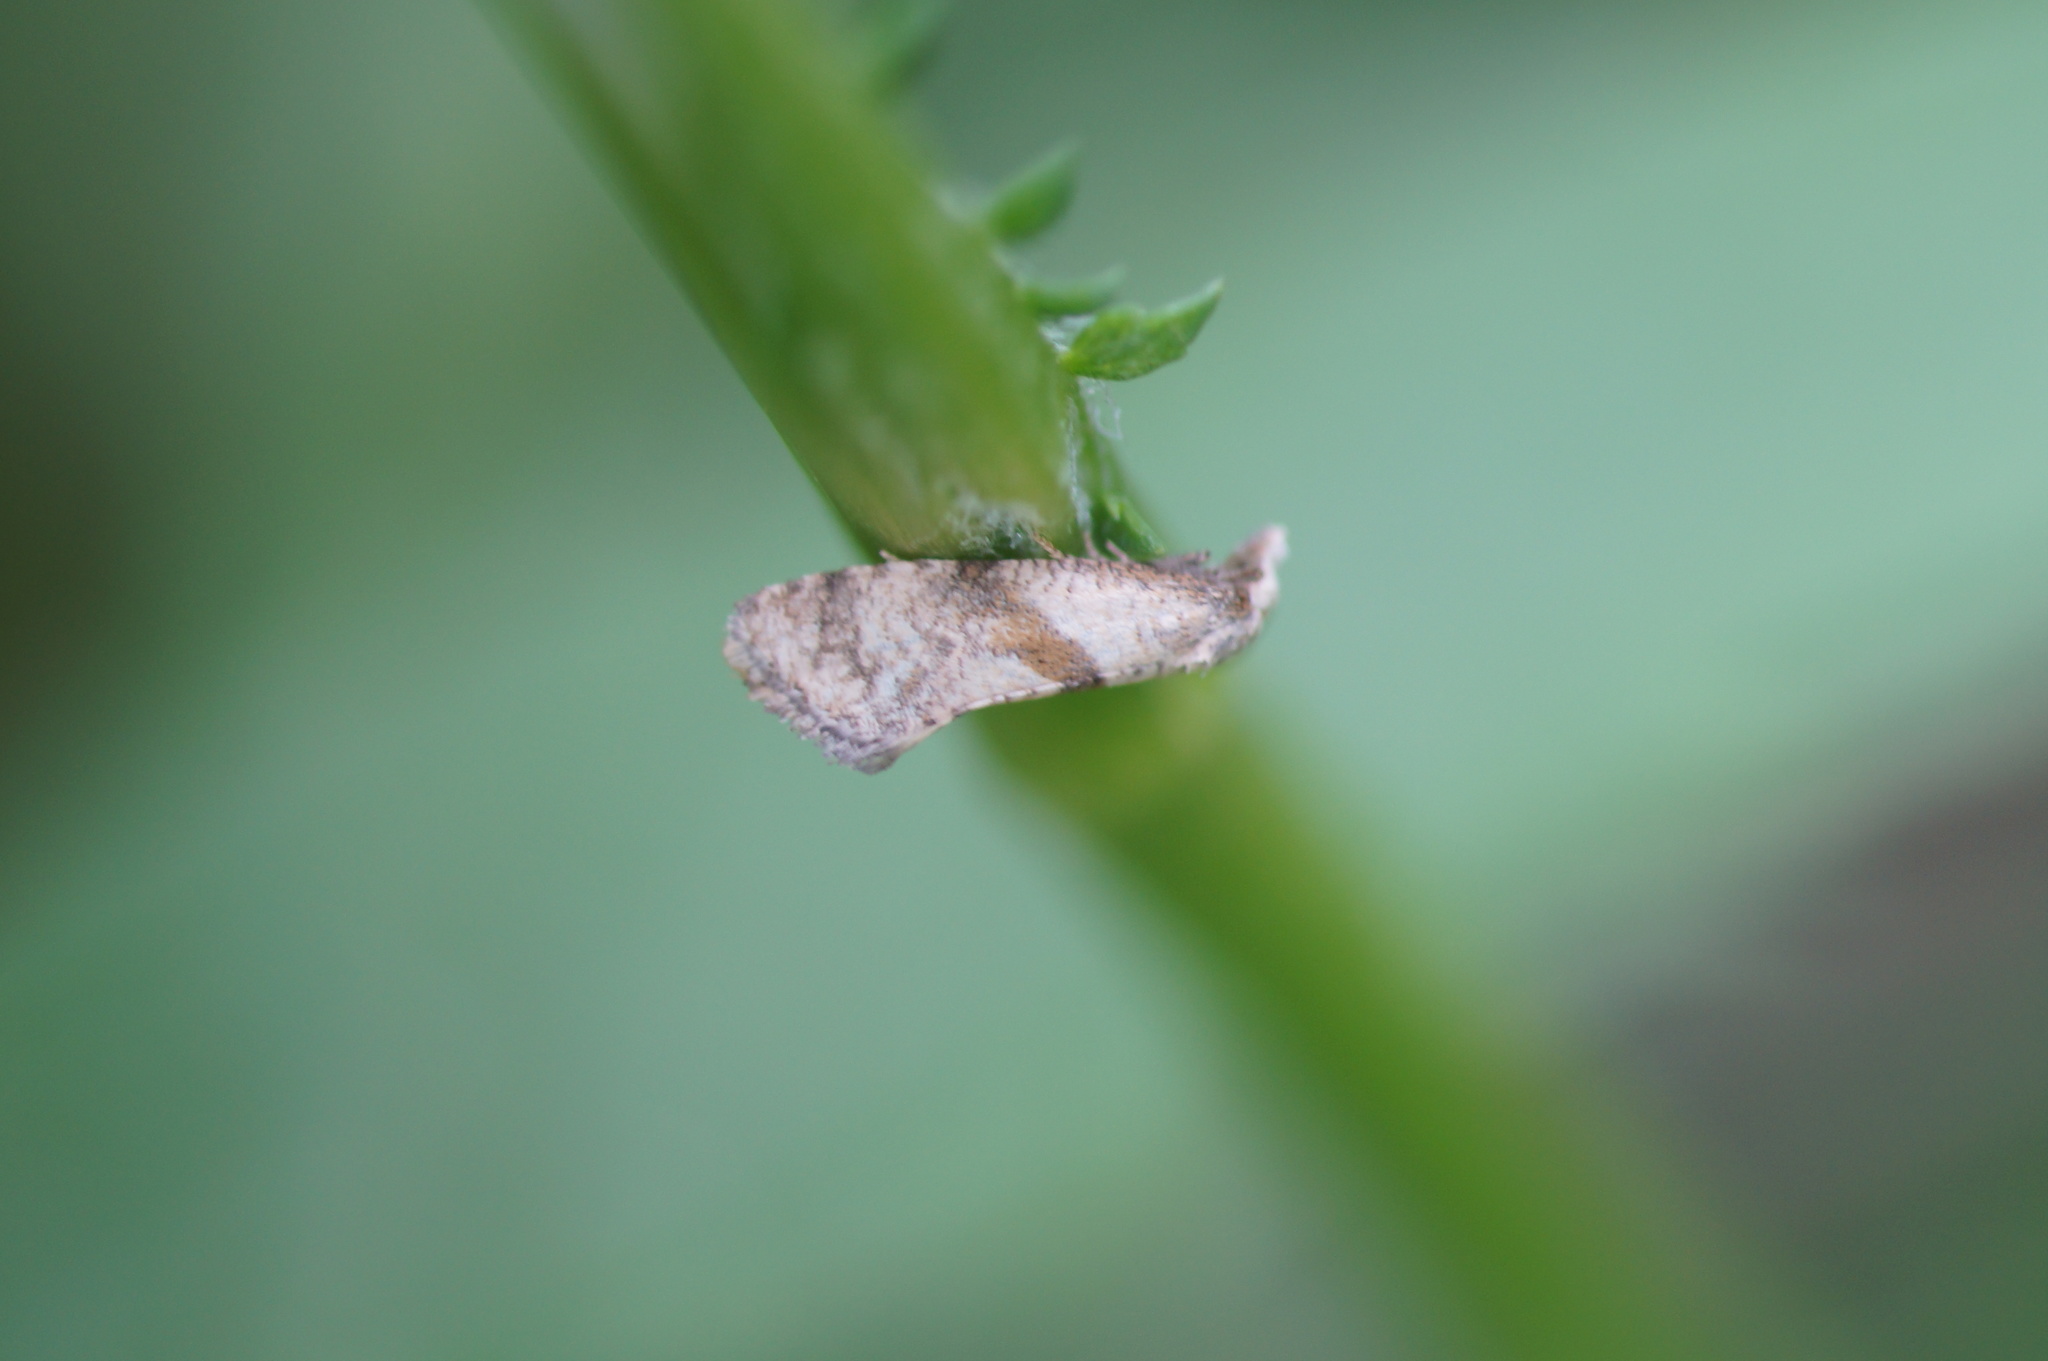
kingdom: Animalia
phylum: Arthropoda
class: Insecta
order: Lepidoptera
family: Tortricidae
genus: Cochylidia
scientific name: Cochylidia implicitana
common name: Chamomile conch
